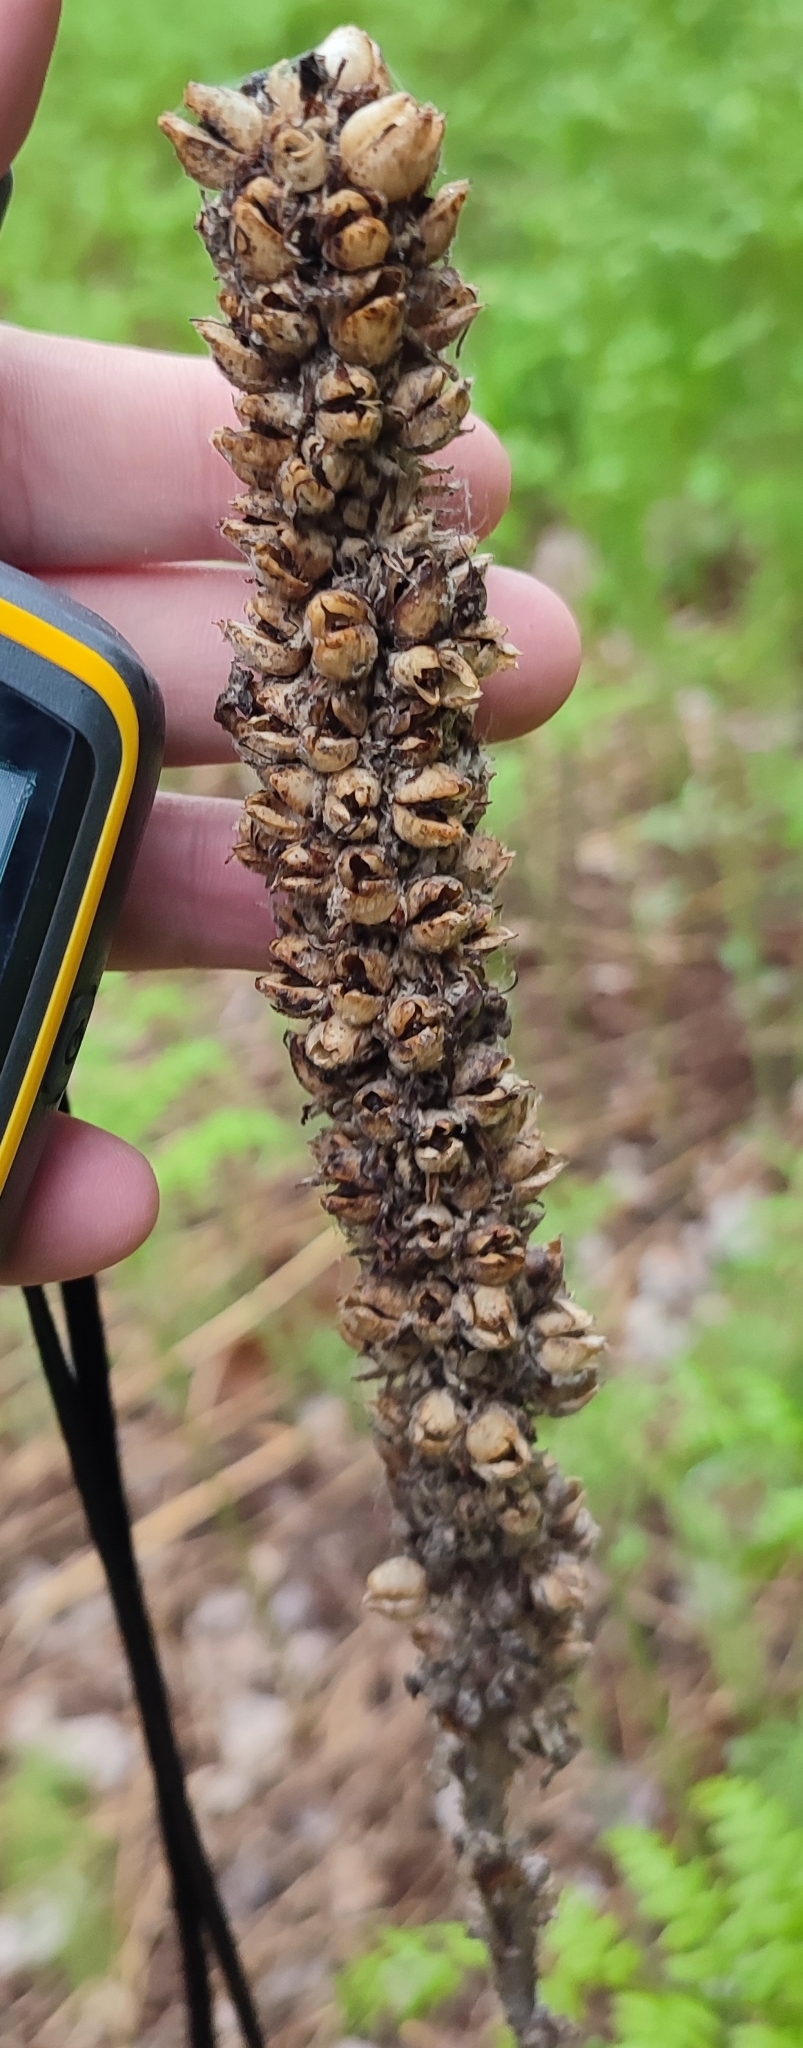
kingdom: Plantae
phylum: Tracheophyta
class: Magnoliopsida
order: Lamiales
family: Scrophulariaceae
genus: Verbascum
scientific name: Verbascum thapsus
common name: Common mullein
